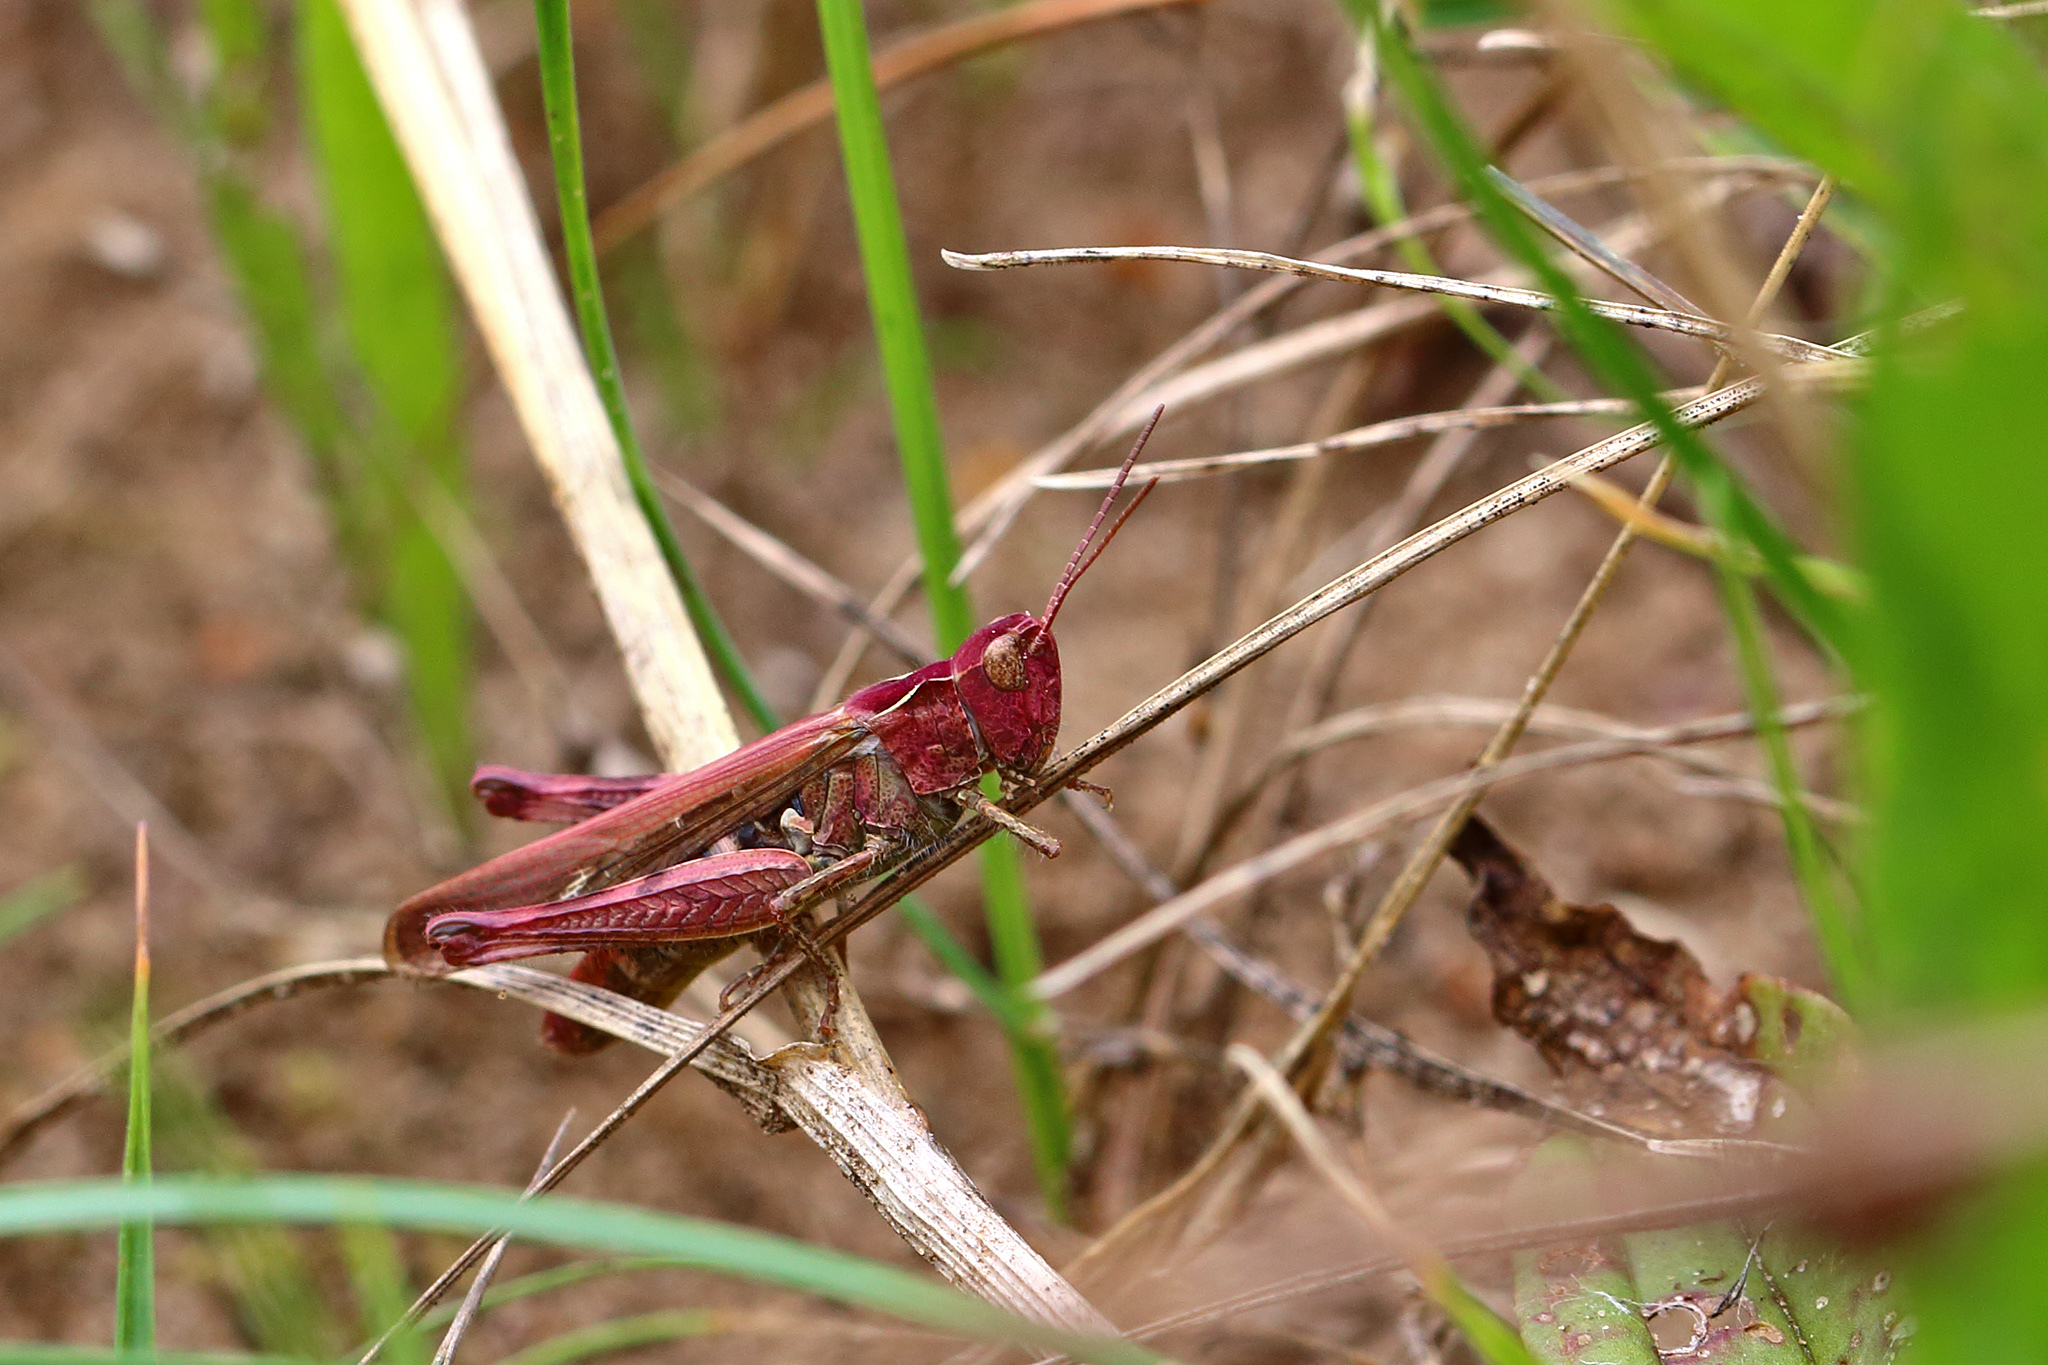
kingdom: Animalia
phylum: Arthropoda
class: Insecta
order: Orthoptera
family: Acrididae
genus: Chorthippus
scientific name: Chorthippus brunneus
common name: Field grasshopper
